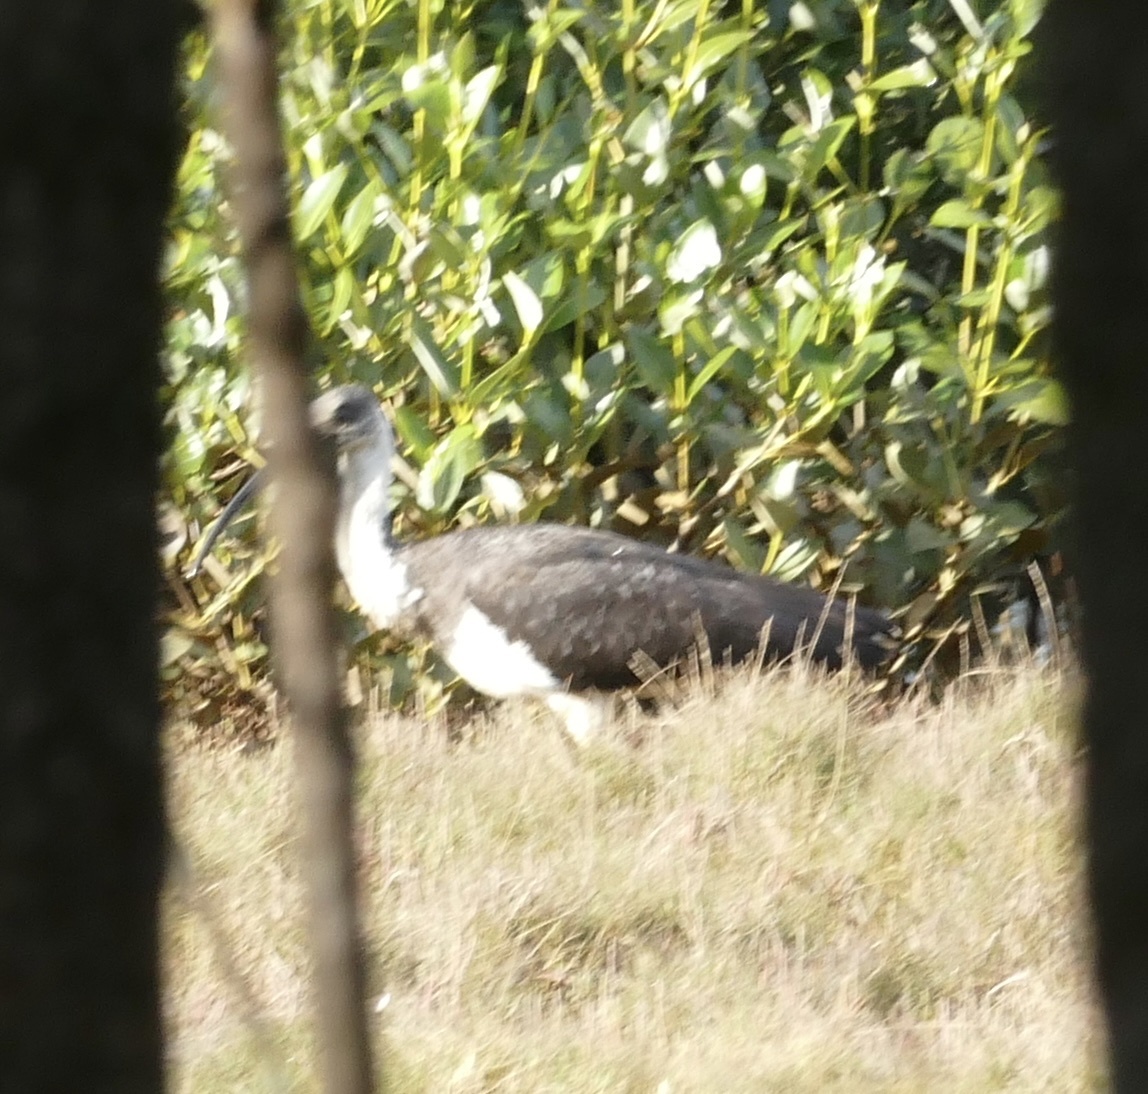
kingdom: Animalia
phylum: Chordata
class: Aves
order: Pelecaniformes
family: Threskiornithidae
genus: Threskiornis
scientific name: Threskiornis spinicollis
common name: Straw-necked ibis
